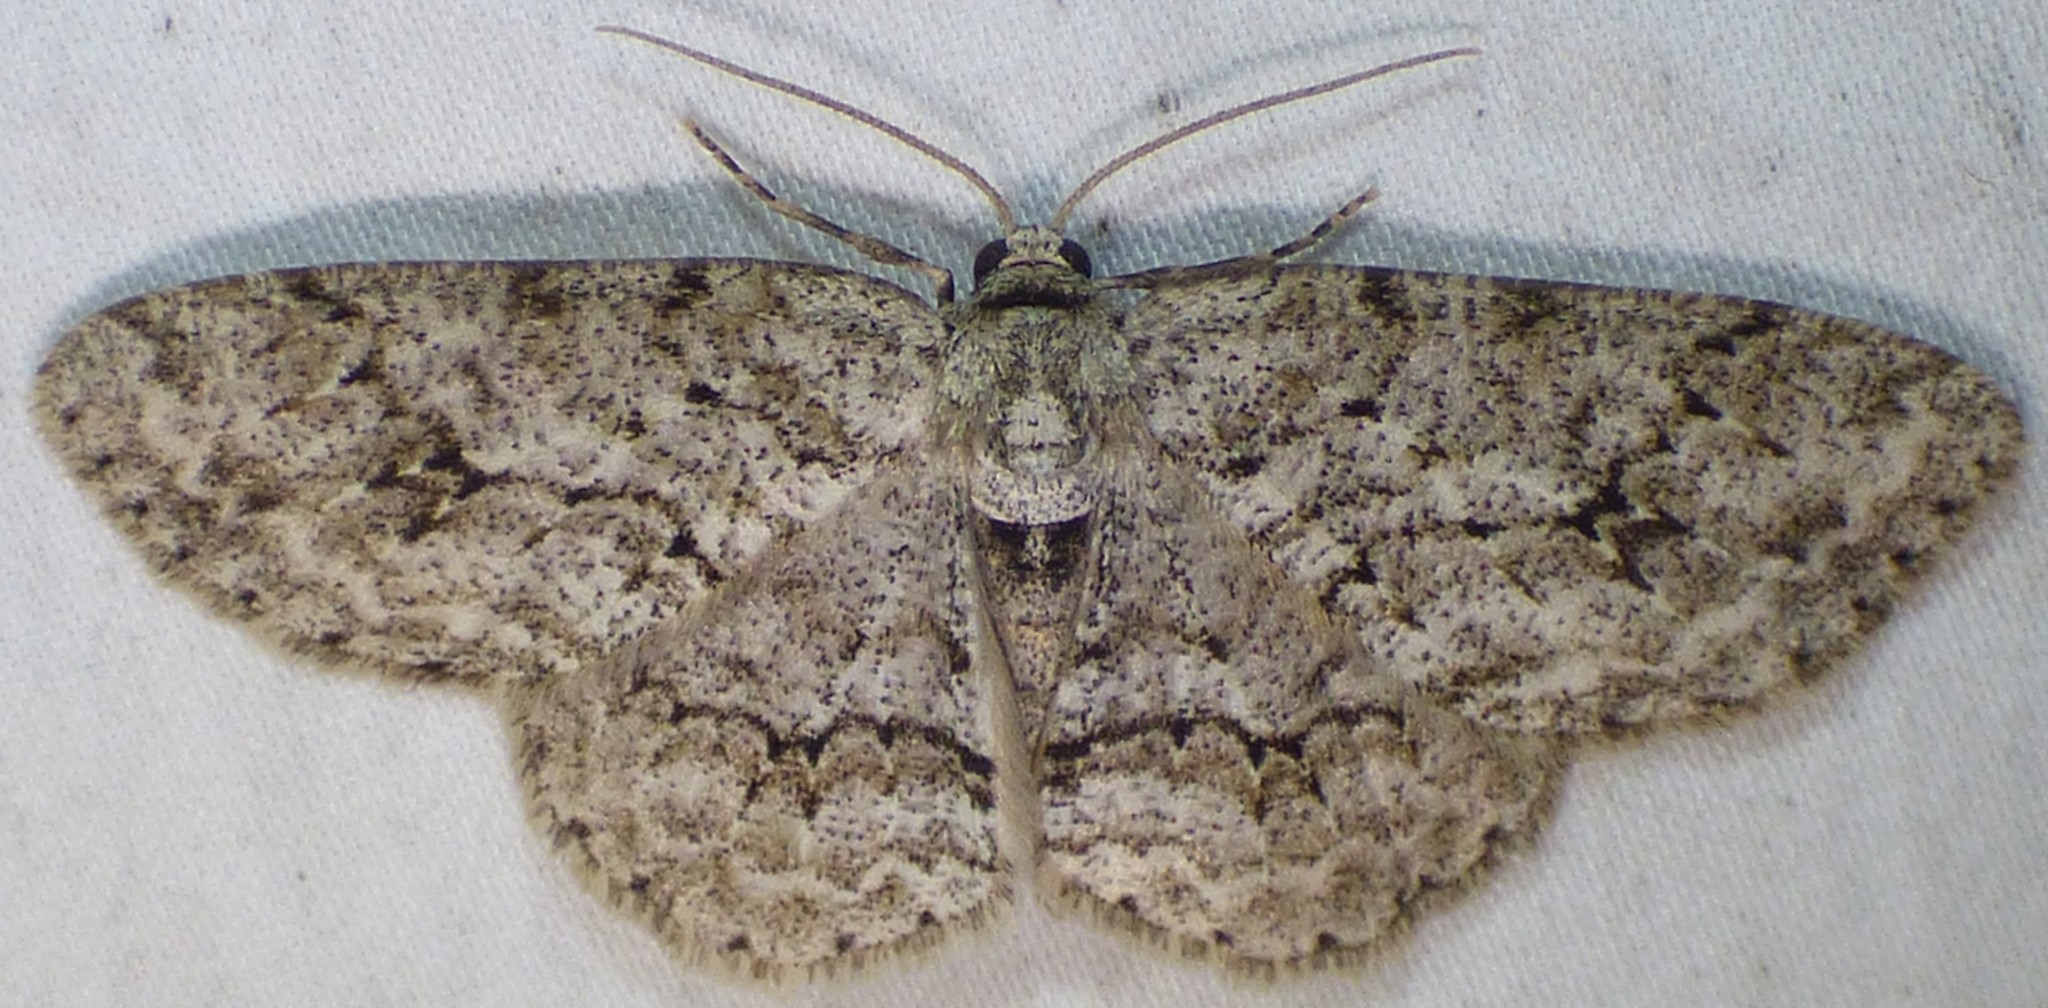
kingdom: Animalia
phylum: Arthropoda
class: Insecta
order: Lepidoptera
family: Geometridae
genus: Ectropis
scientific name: Ectropis crepuscularia
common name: Engrailed
